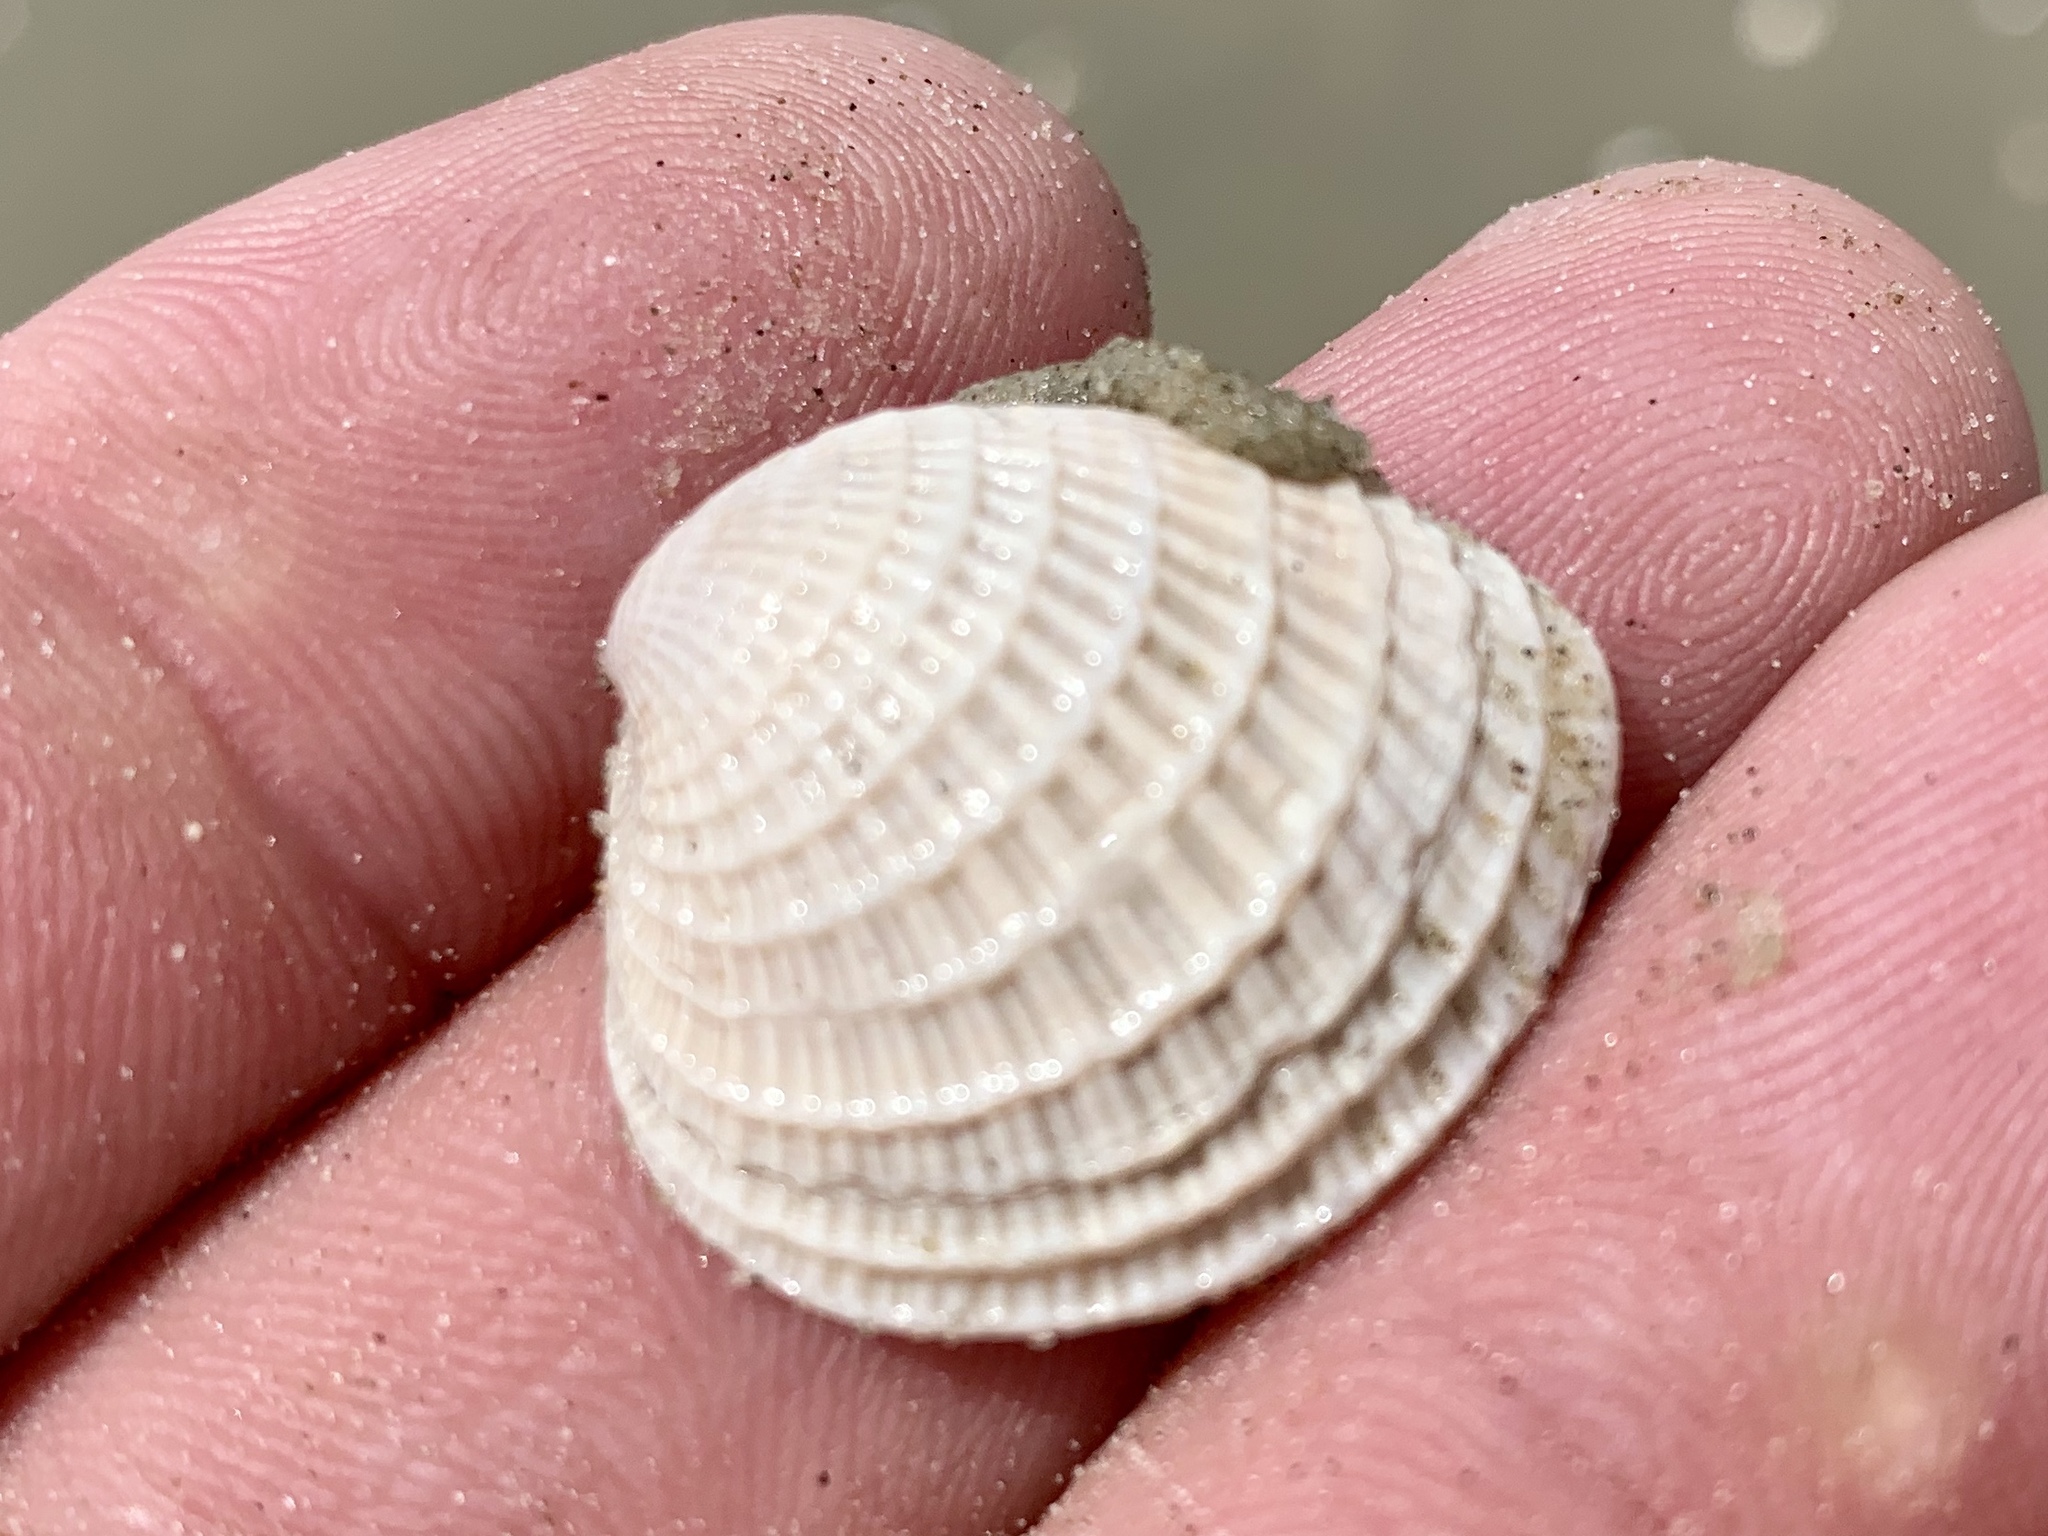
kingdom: Animalia
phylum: Mollusca
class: Bivalvia
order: Venerida
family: Veneridae
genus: Chione
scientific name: Chione elevata
